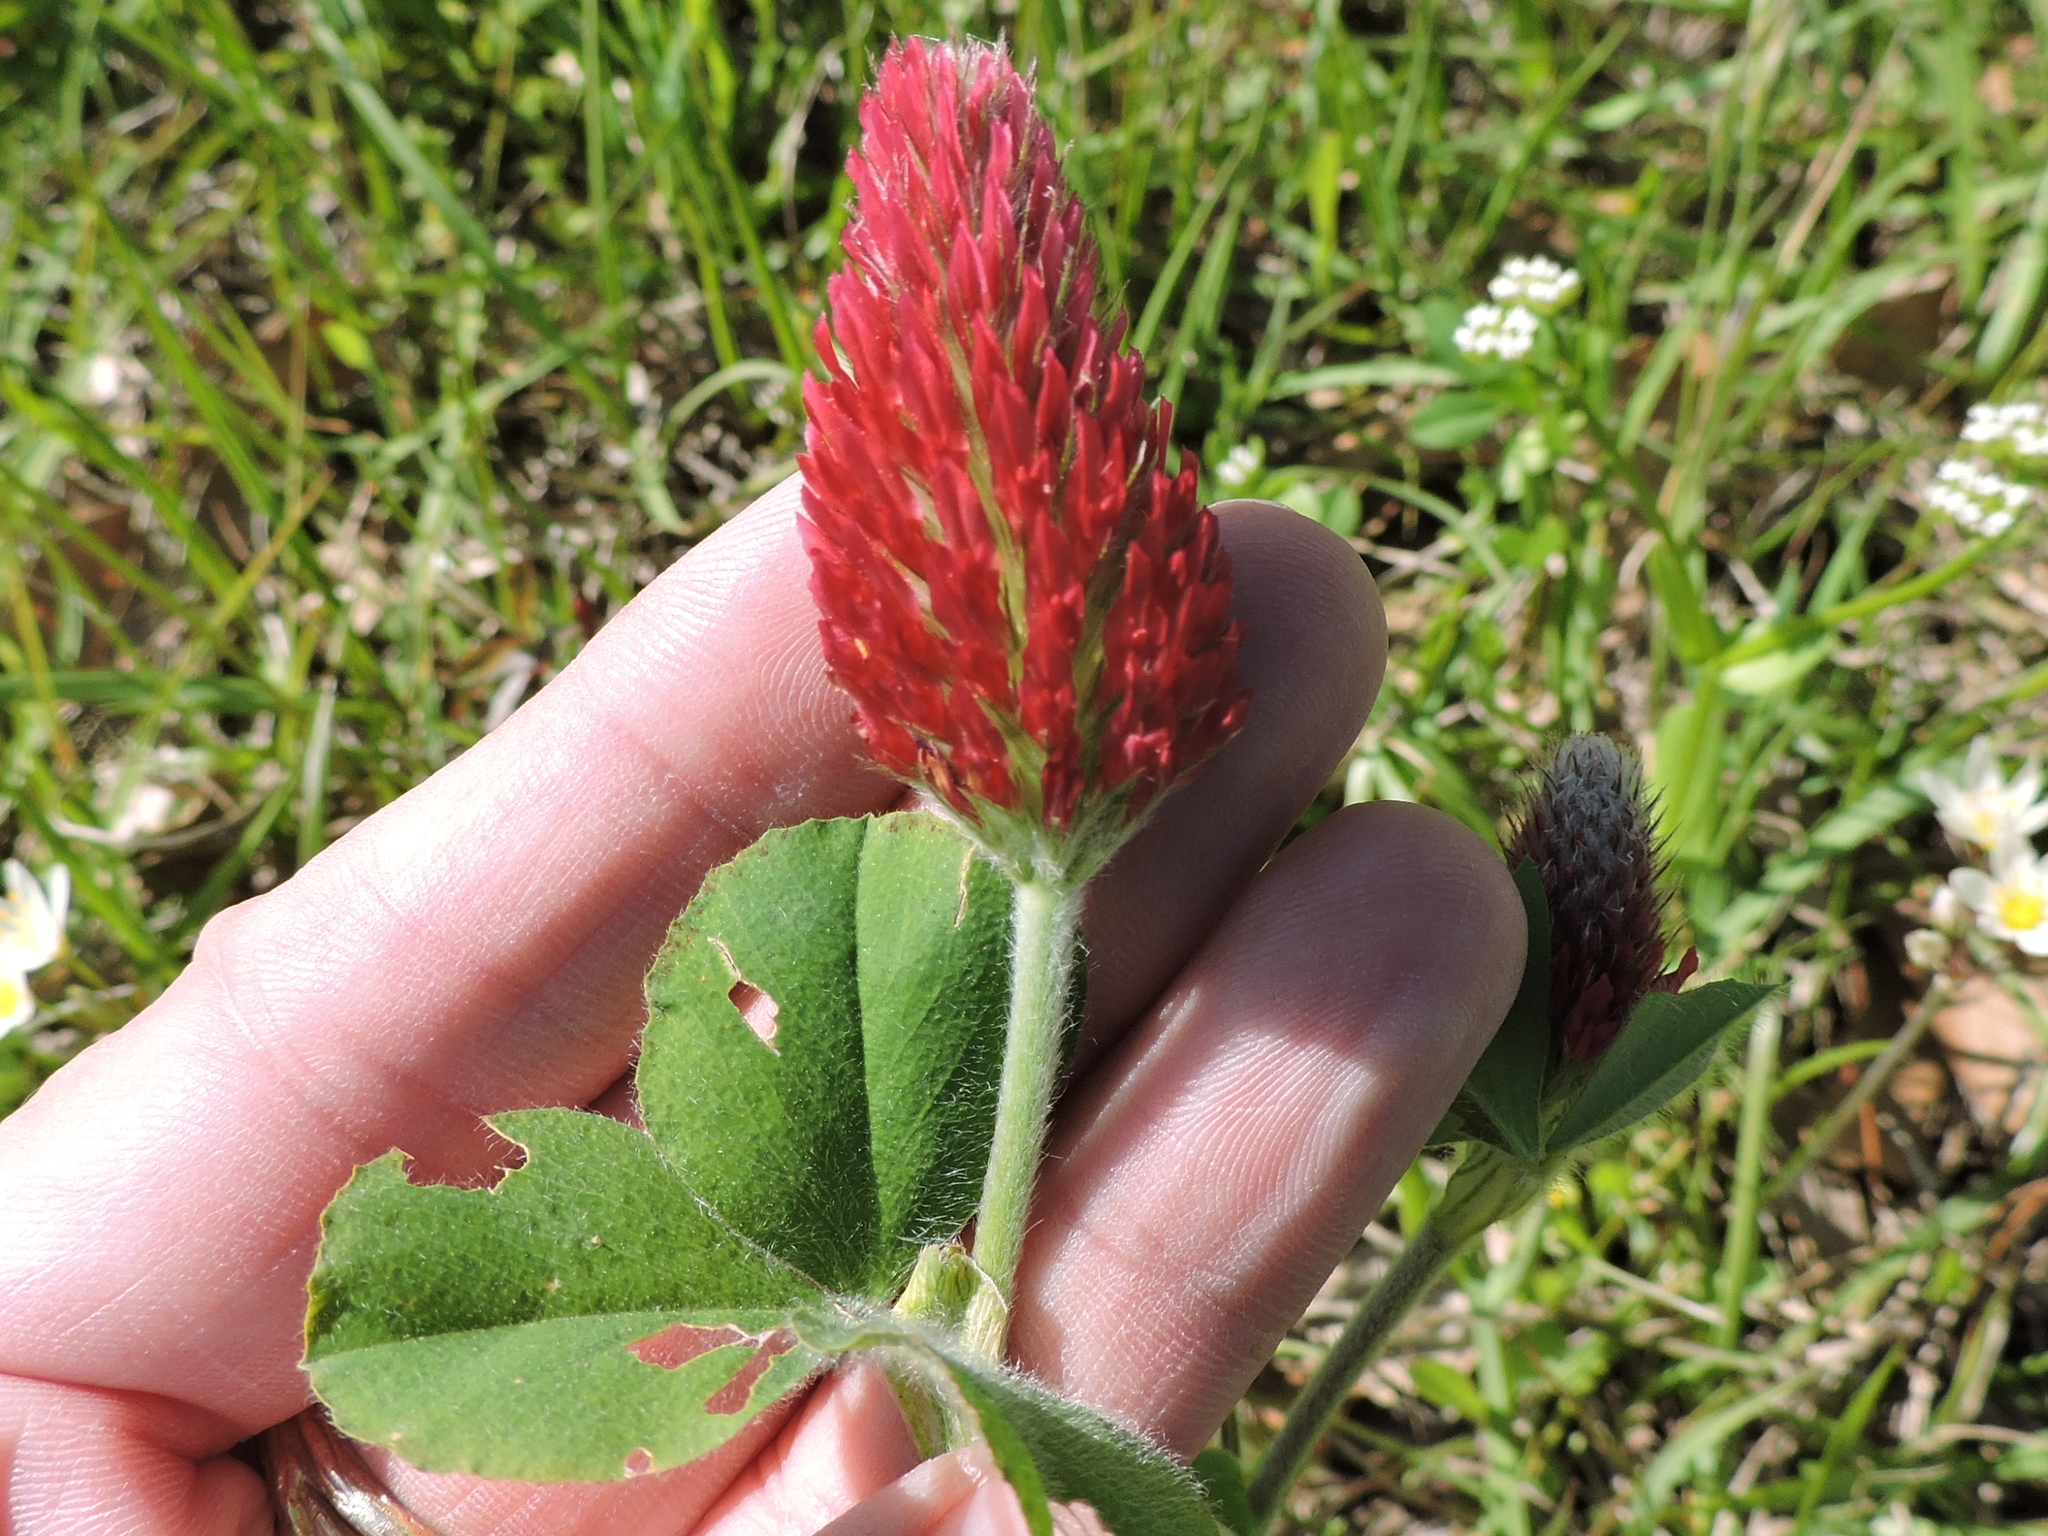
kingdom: Plantae
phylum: Tracheophyta
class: Magnoliopsida
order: Fabales
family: Fabaceae
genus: Trifolium
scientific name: Trifolium incarnatum
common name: Crimson clover
